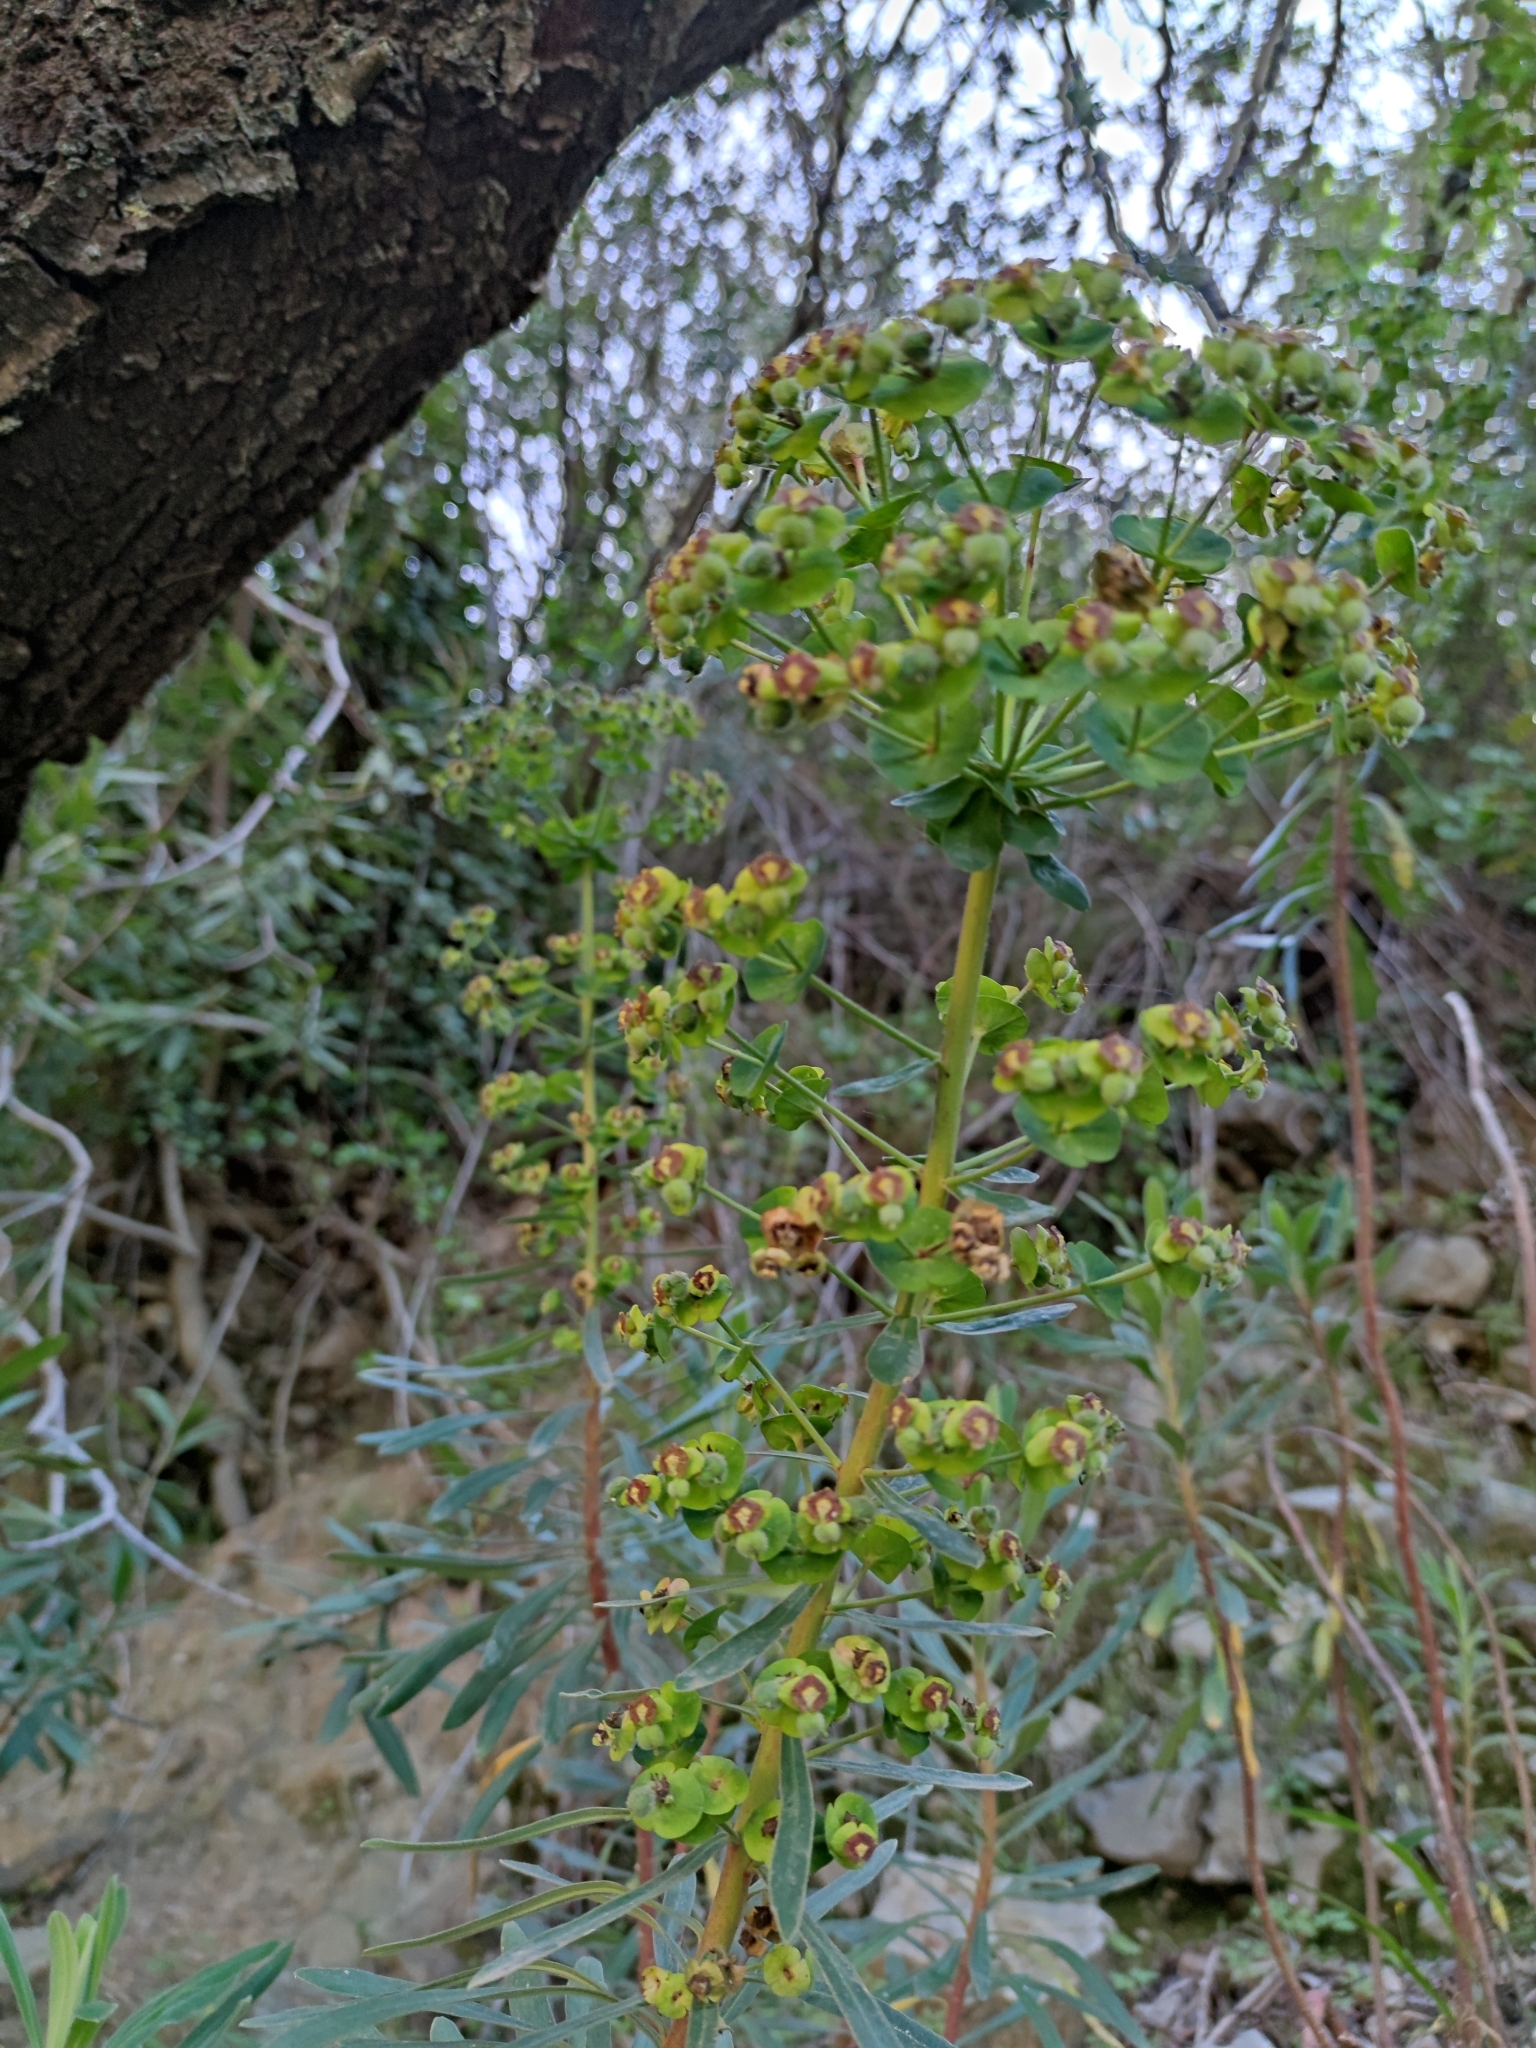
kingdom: Plantae
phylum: Tracheophyta
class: Magnoliopsida
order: Malpighiales
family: Euphorbiaceae
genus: Euphorbia
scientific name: Euphorbia characias
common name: Mediterranean spurge
